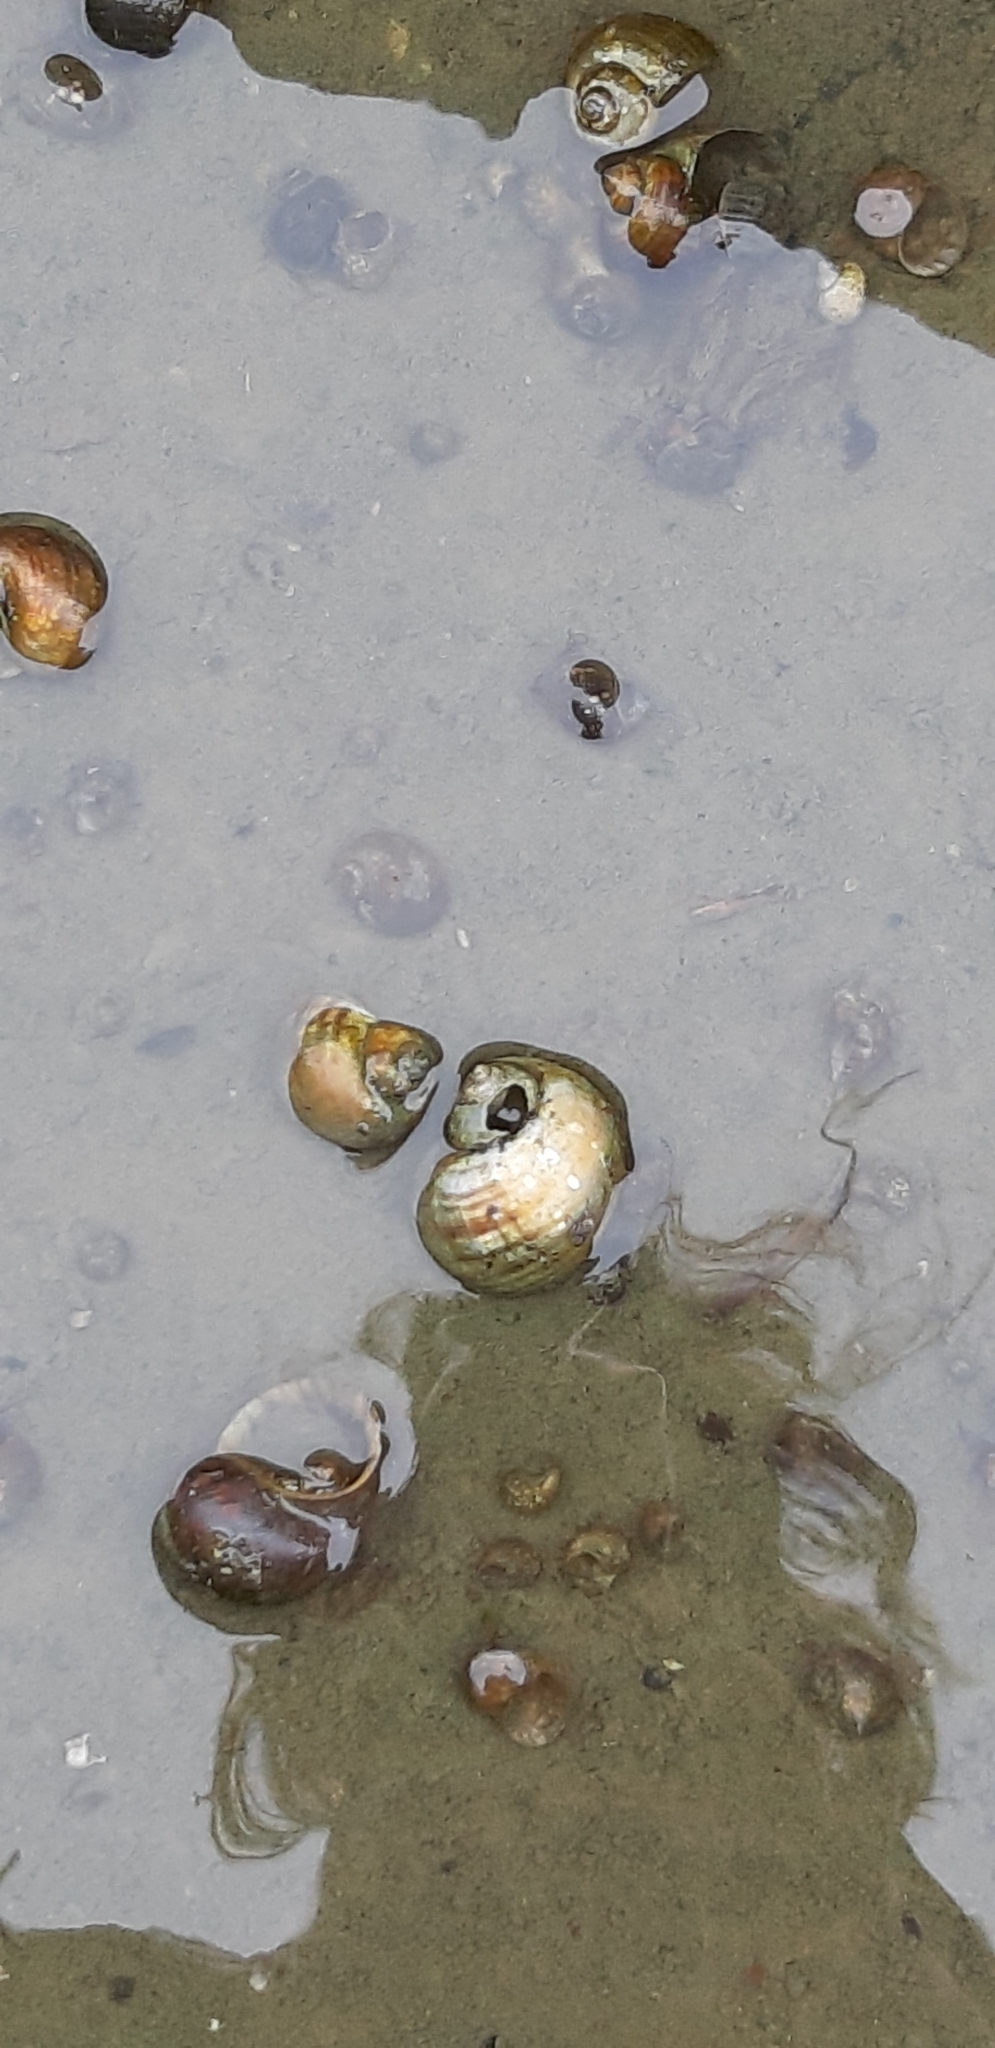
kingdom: Animalia
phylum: Mollusca
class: Gastropoda
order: Architaenioglossa
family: Ampullariidae
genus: Pomacea
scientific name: Pomacea canaliculata
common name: Channeled applesnail
